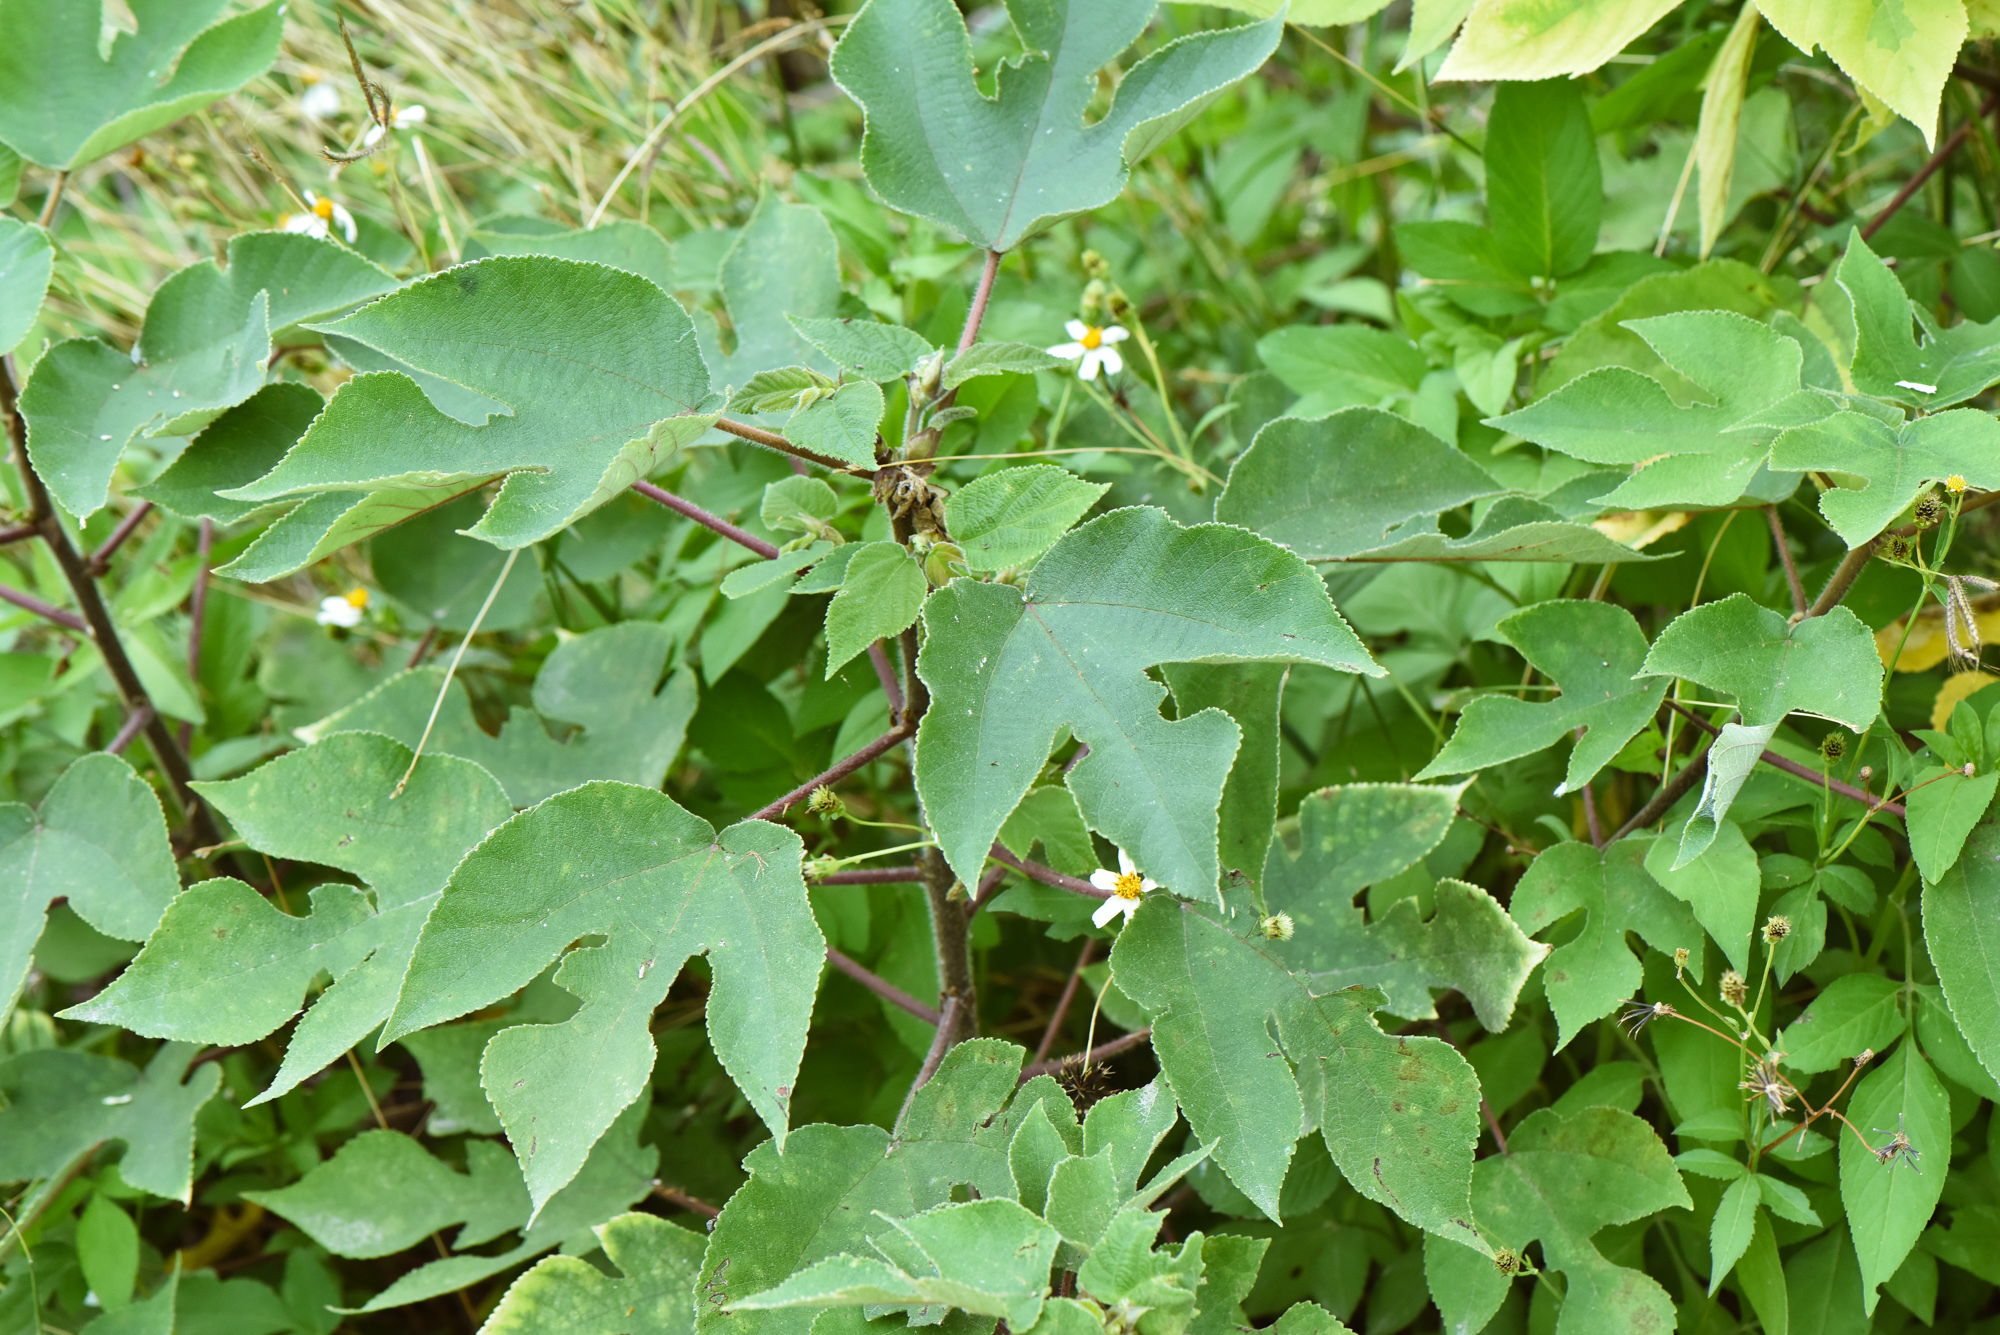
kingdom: Plantae
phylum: Tracheophyta
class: Magnoliopsida
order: Rosales
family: Moraceae
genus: Broussonetia
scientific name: Broussonetia papyrifera
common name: Paper mulberry
